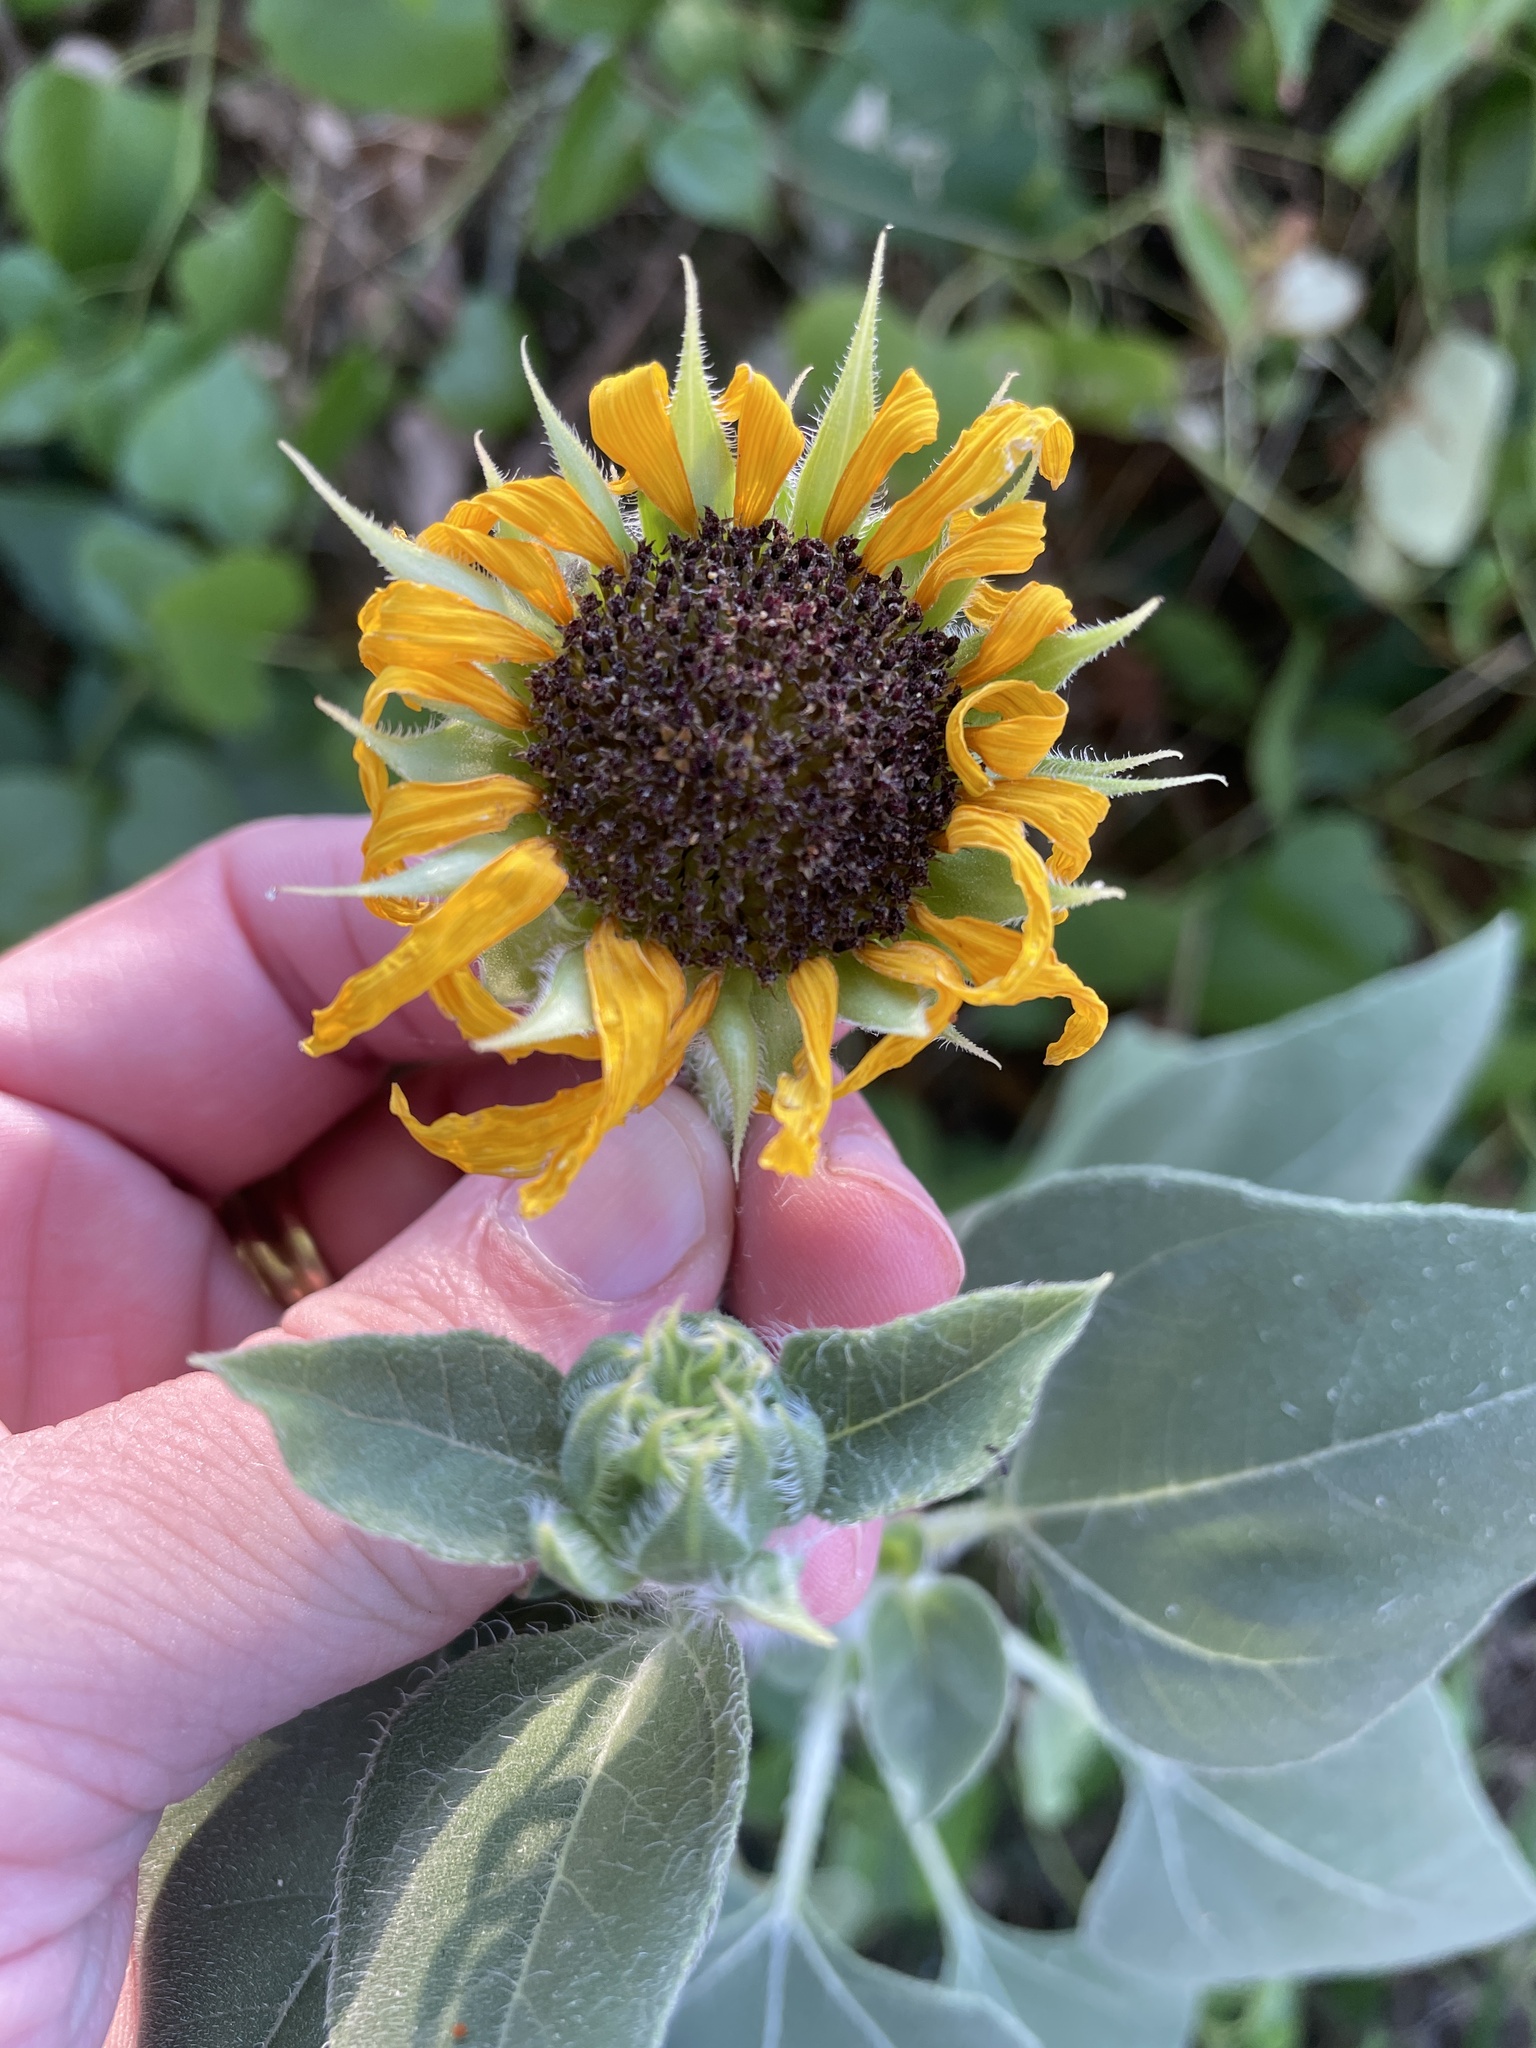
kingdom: Plantae
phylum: Tracheophyta
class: Magnoliopsida
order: Asterales
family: Asteraceae
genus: Helianthus
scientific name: Helianthus annuus
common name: Sunflower
